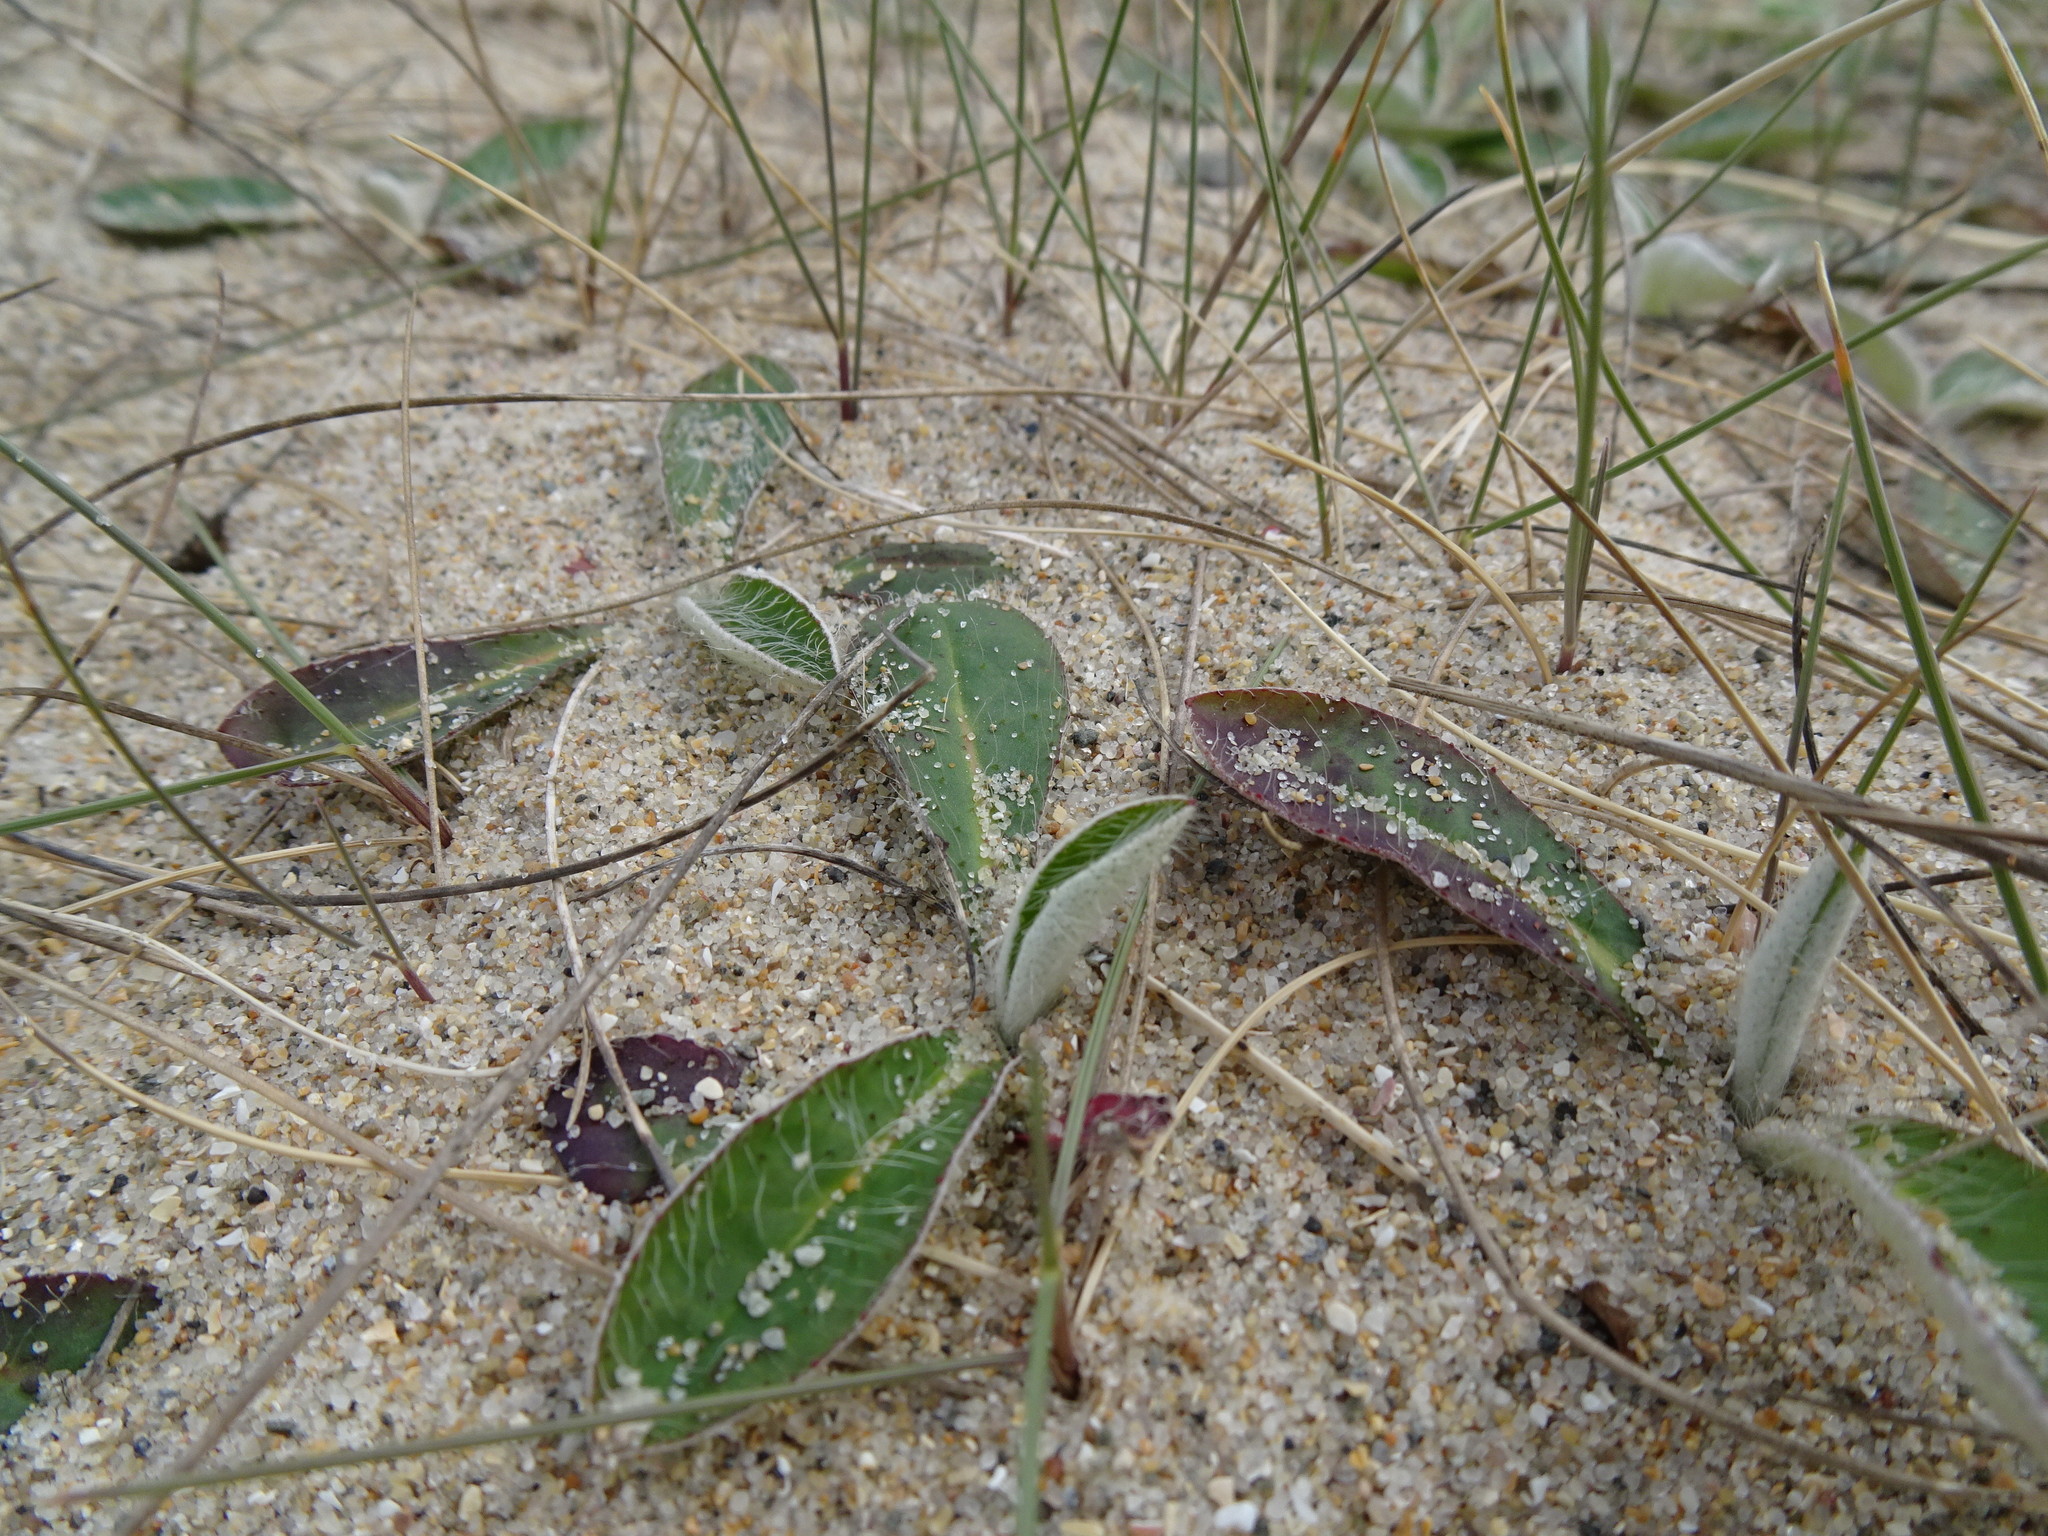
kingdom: Plantae
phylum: Tracheophyta
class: Magnoliopsida
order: Asterales
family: Asteraceae
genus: Pilosella
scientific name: Pilosella officinarum
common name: Mouse-ear hawkweed
